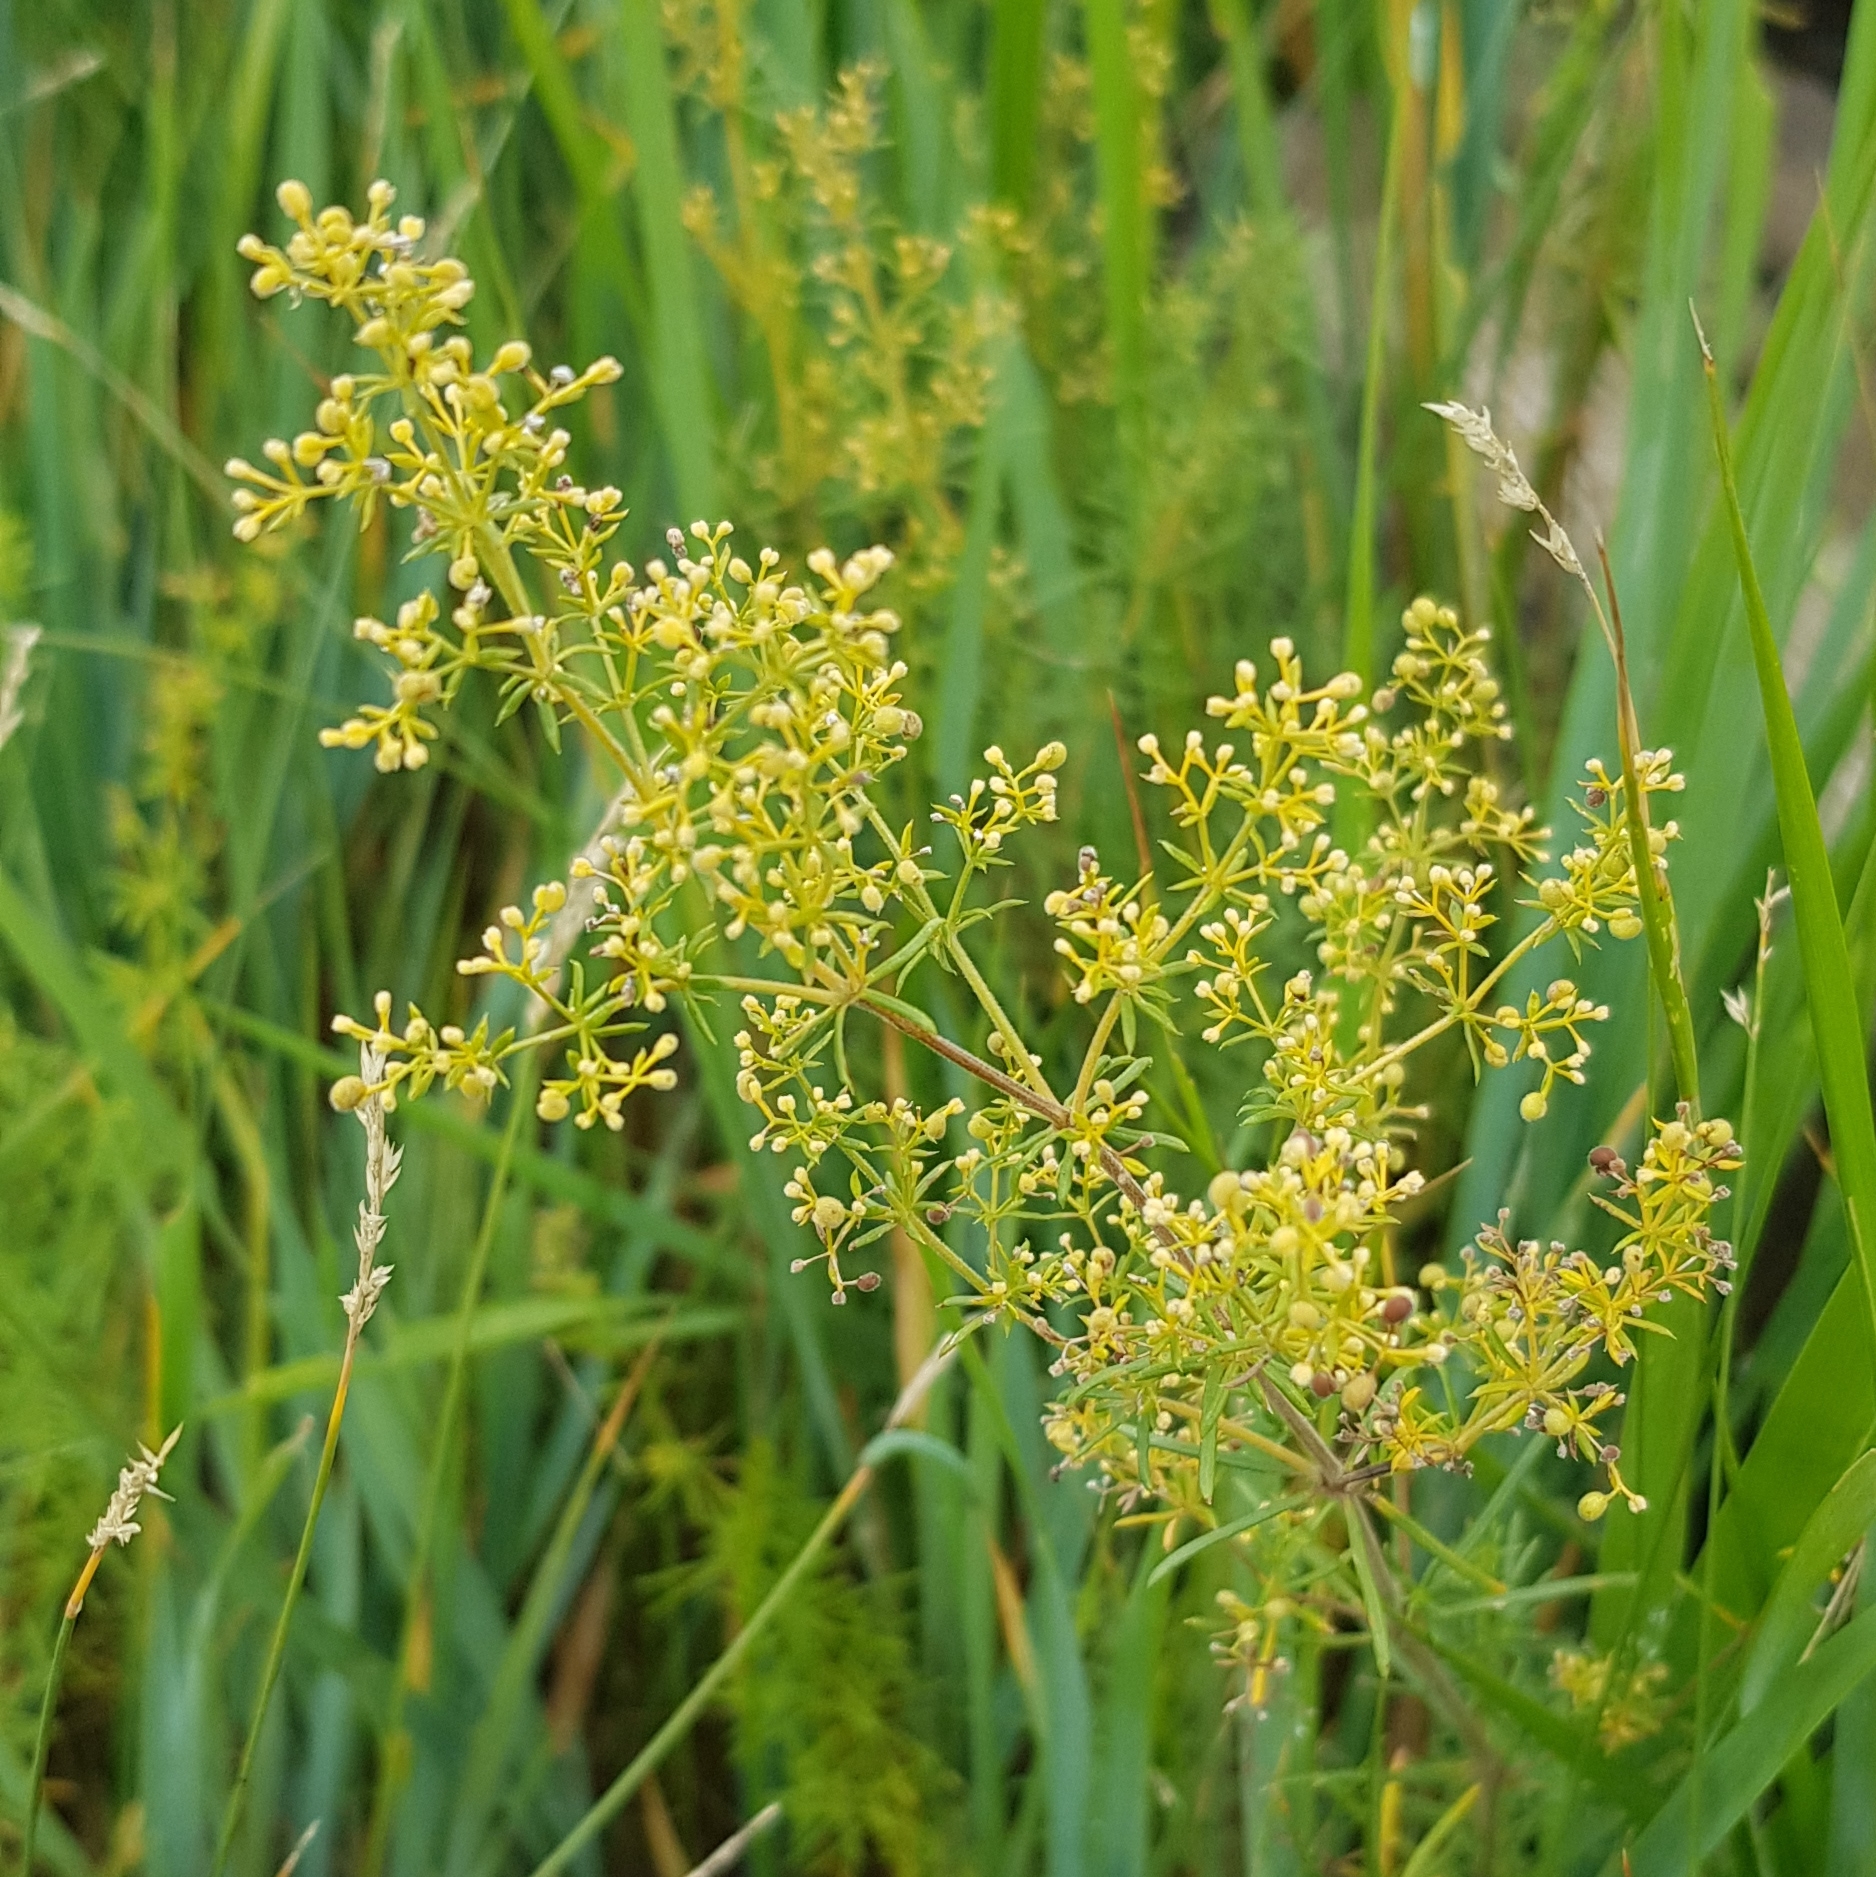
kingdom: Plantae
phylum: Tracheophyta
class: Magnoliopsida
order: Gentianales
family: Rubiaceae
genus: Galium
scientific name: Galium verum
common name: Lady's bedstraw
